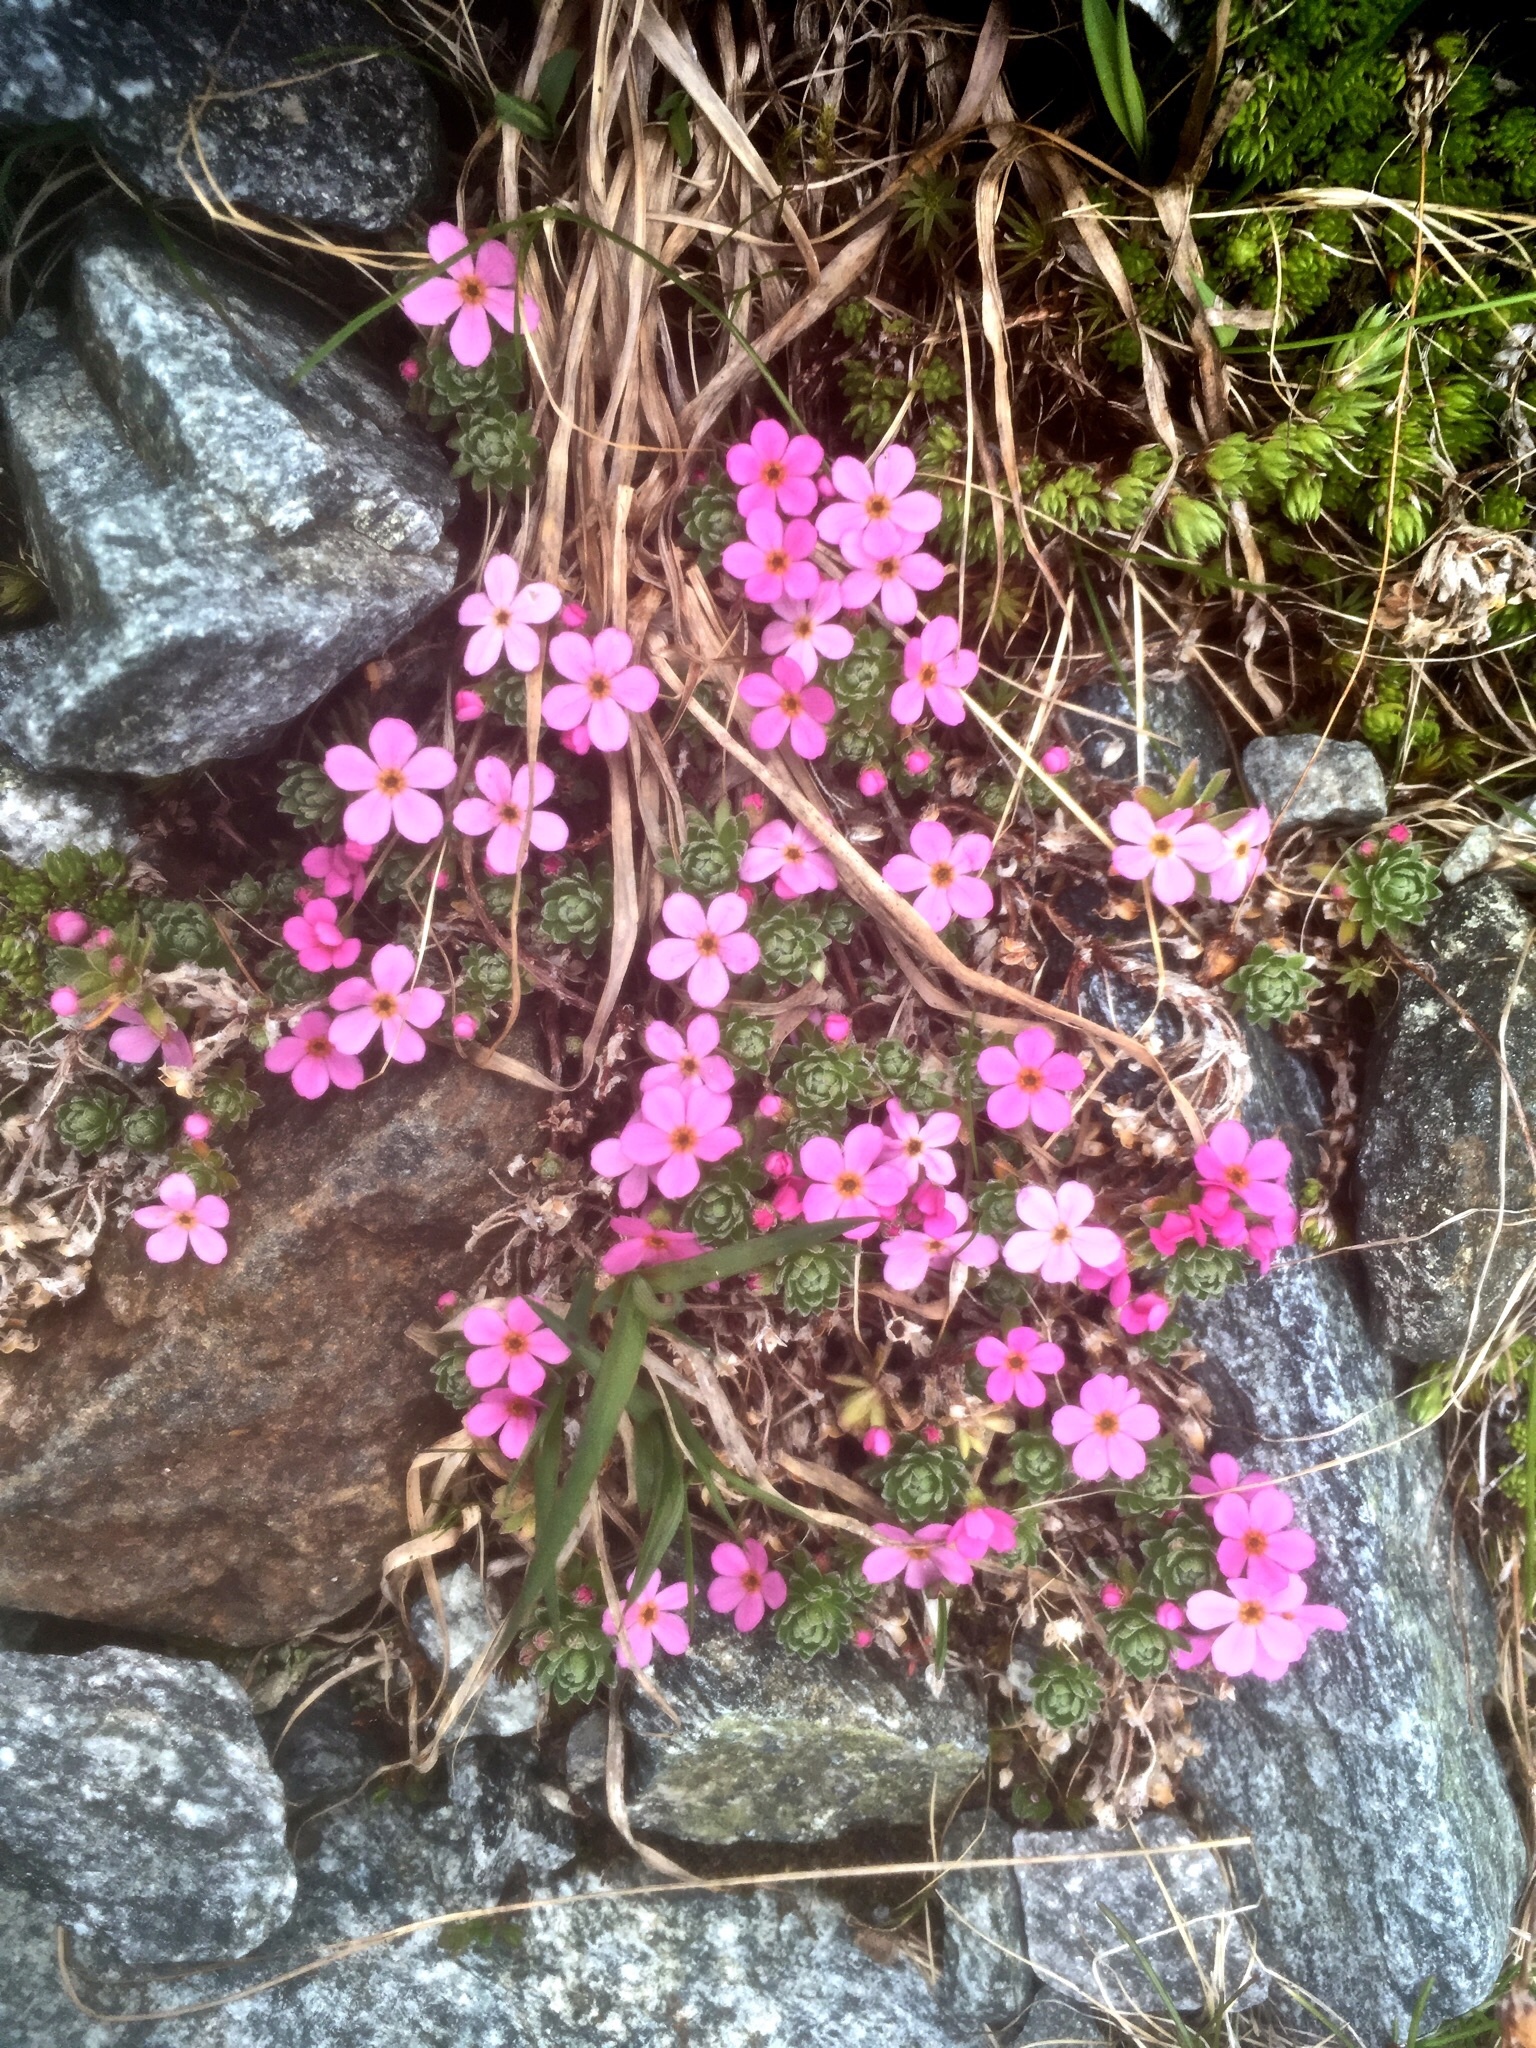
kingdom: Plantae
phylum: Tracheophyta
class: Magnoliopsida
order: Ericales
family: Primulaceae
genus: Androsace
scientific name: Androsace alpina
